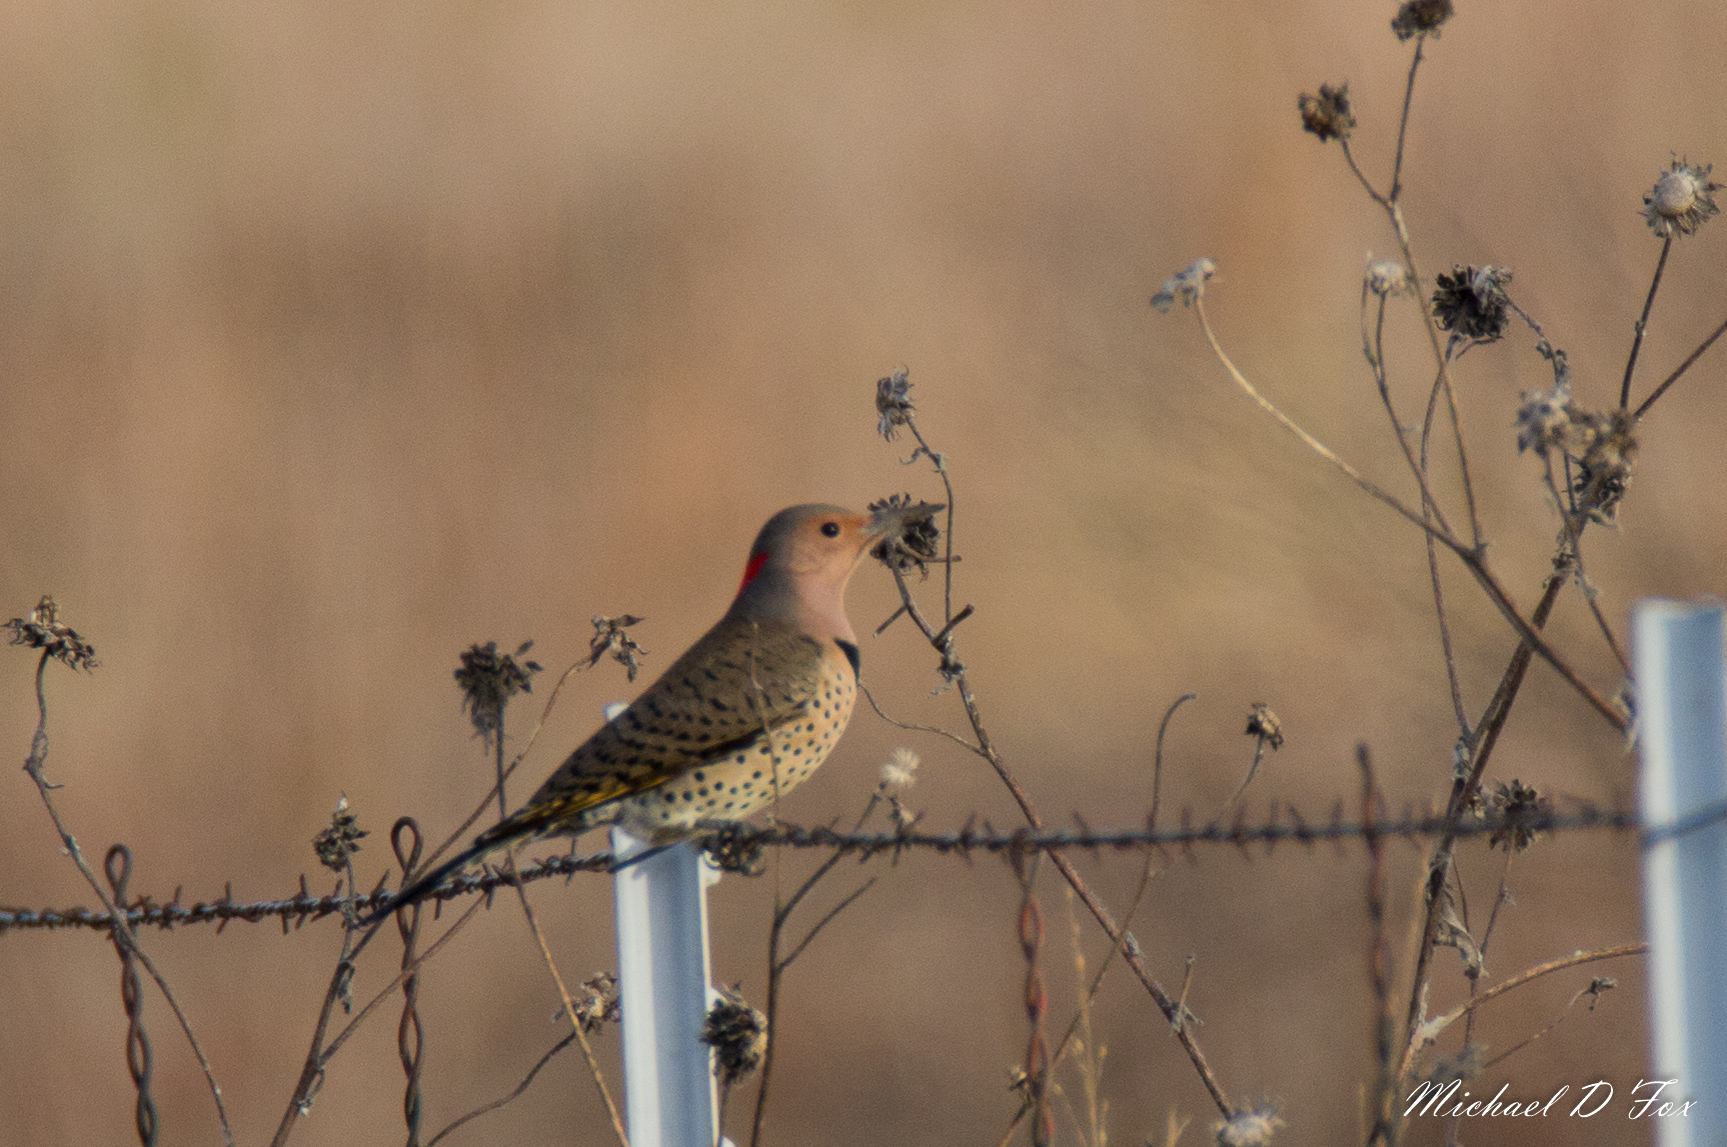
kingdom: Animalia
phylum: Chordata
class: Aves
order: Piciformes
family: Picidae
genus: Colaptes
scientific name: Colaptes auratus
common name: Northern flicker
